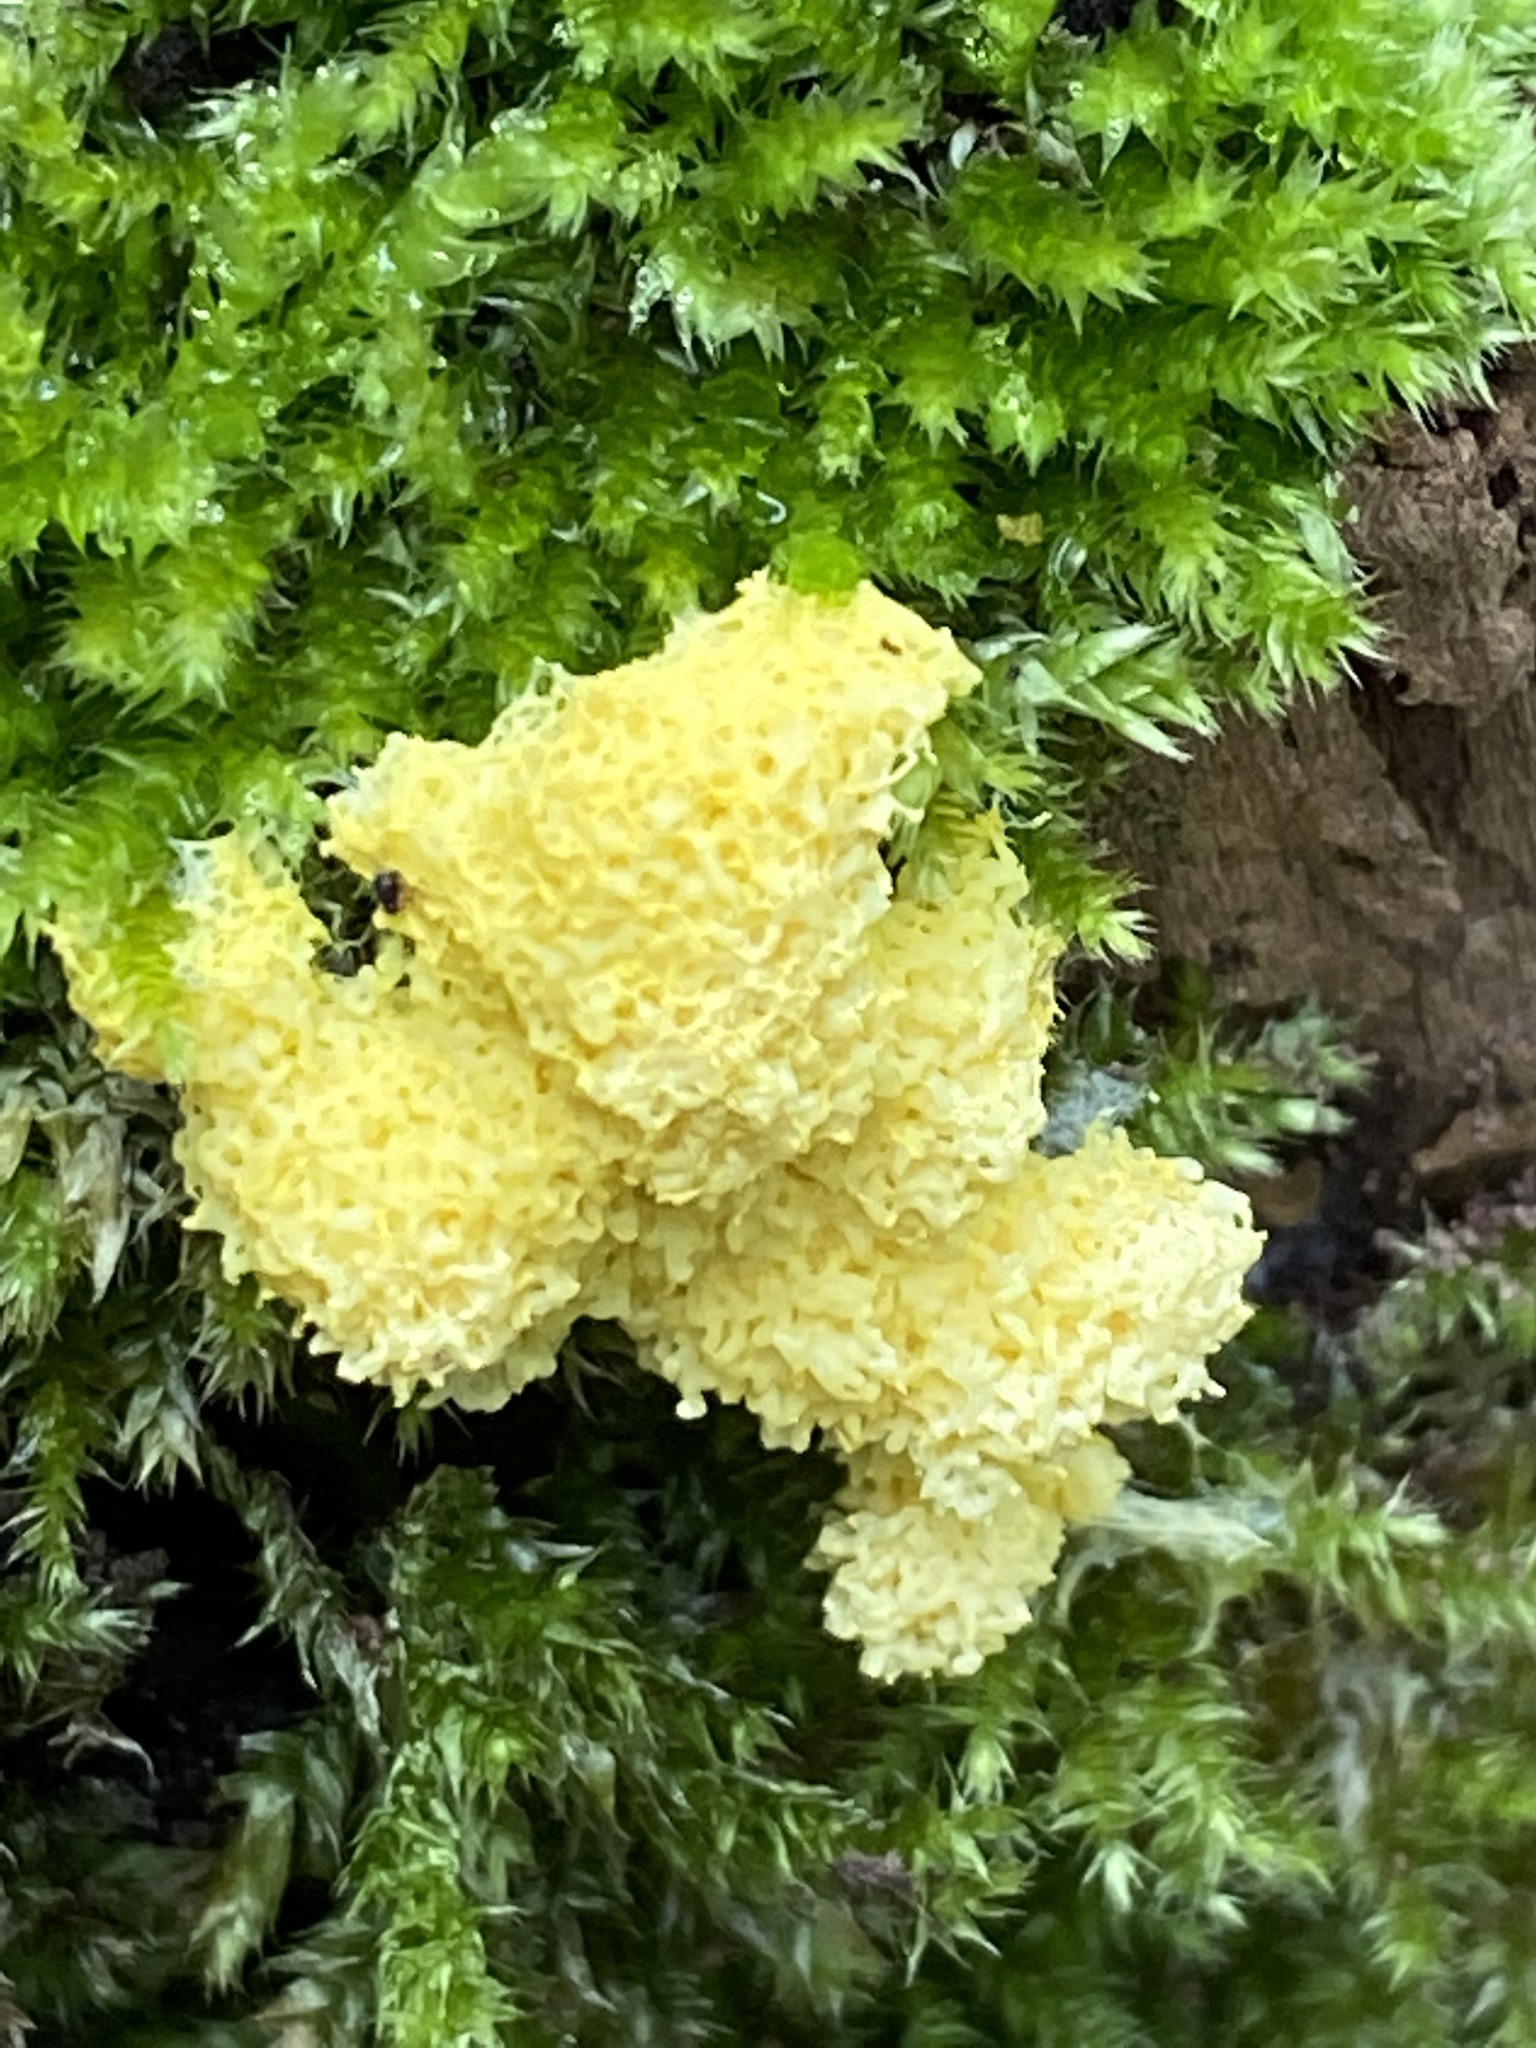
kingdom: Protozoa
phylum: Mycetozoa
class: Myxomycetes
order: Physarales
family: Physaraceae
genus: Fuligo
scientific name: Fuligo septica
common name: Dog vomit slime mold
